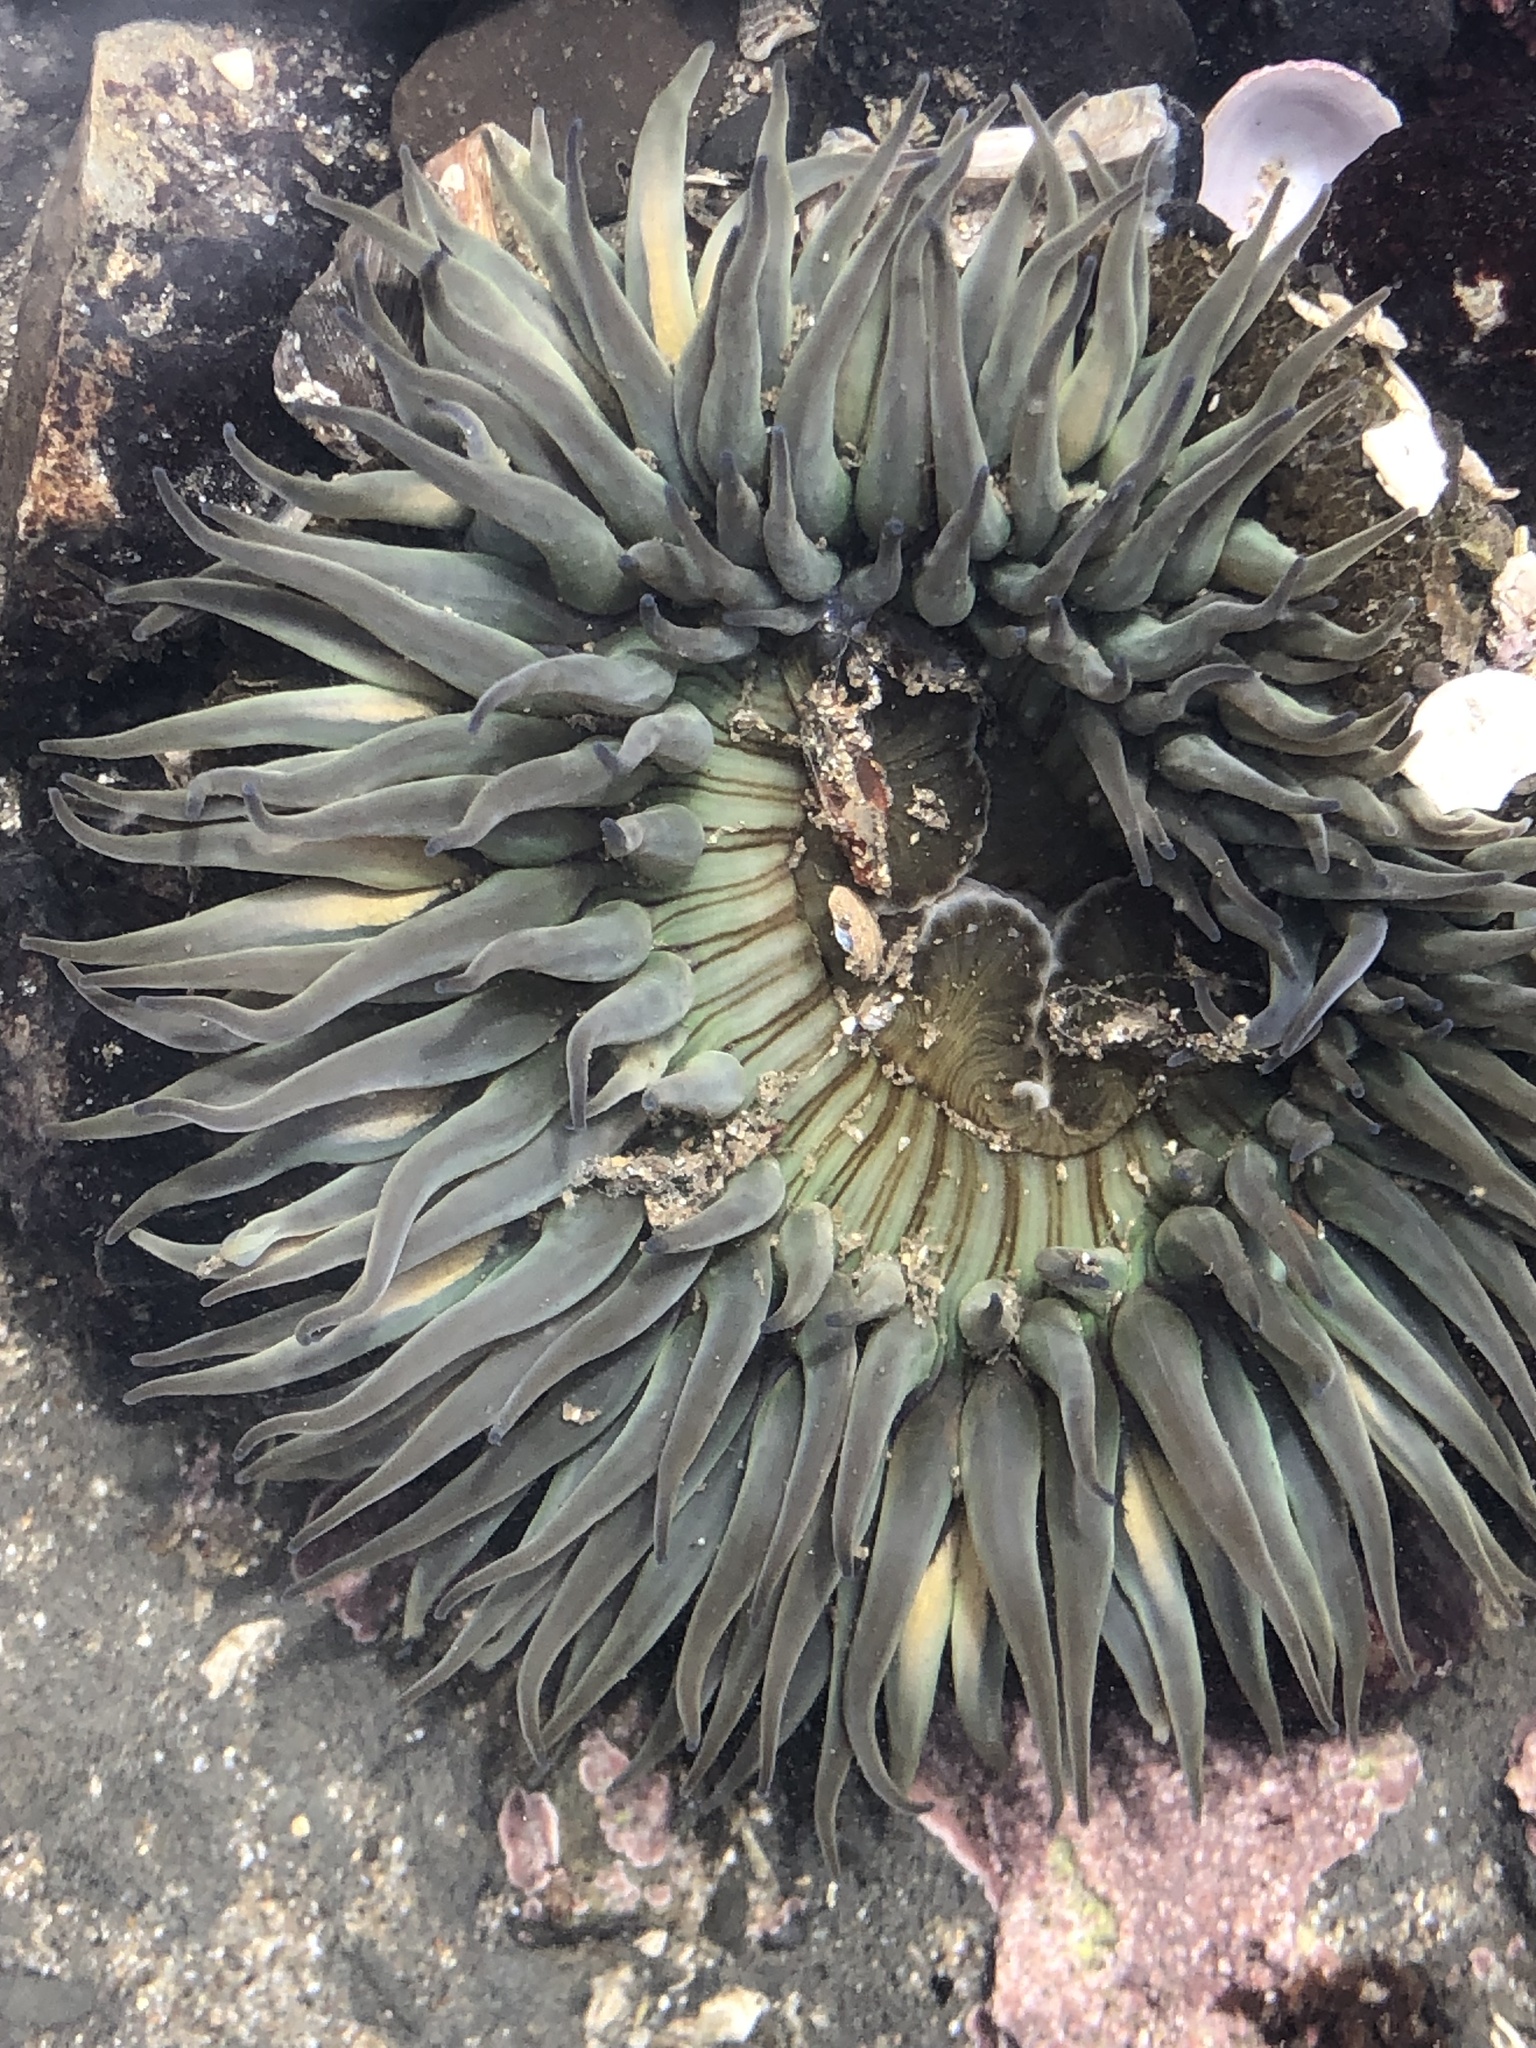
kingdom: Animalia
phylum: Cnidaria
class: Anthozoa
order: Actiniaria
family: Actiniidae
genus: Anthopleura
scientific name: Anthopleura sola
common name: Sun anemone
